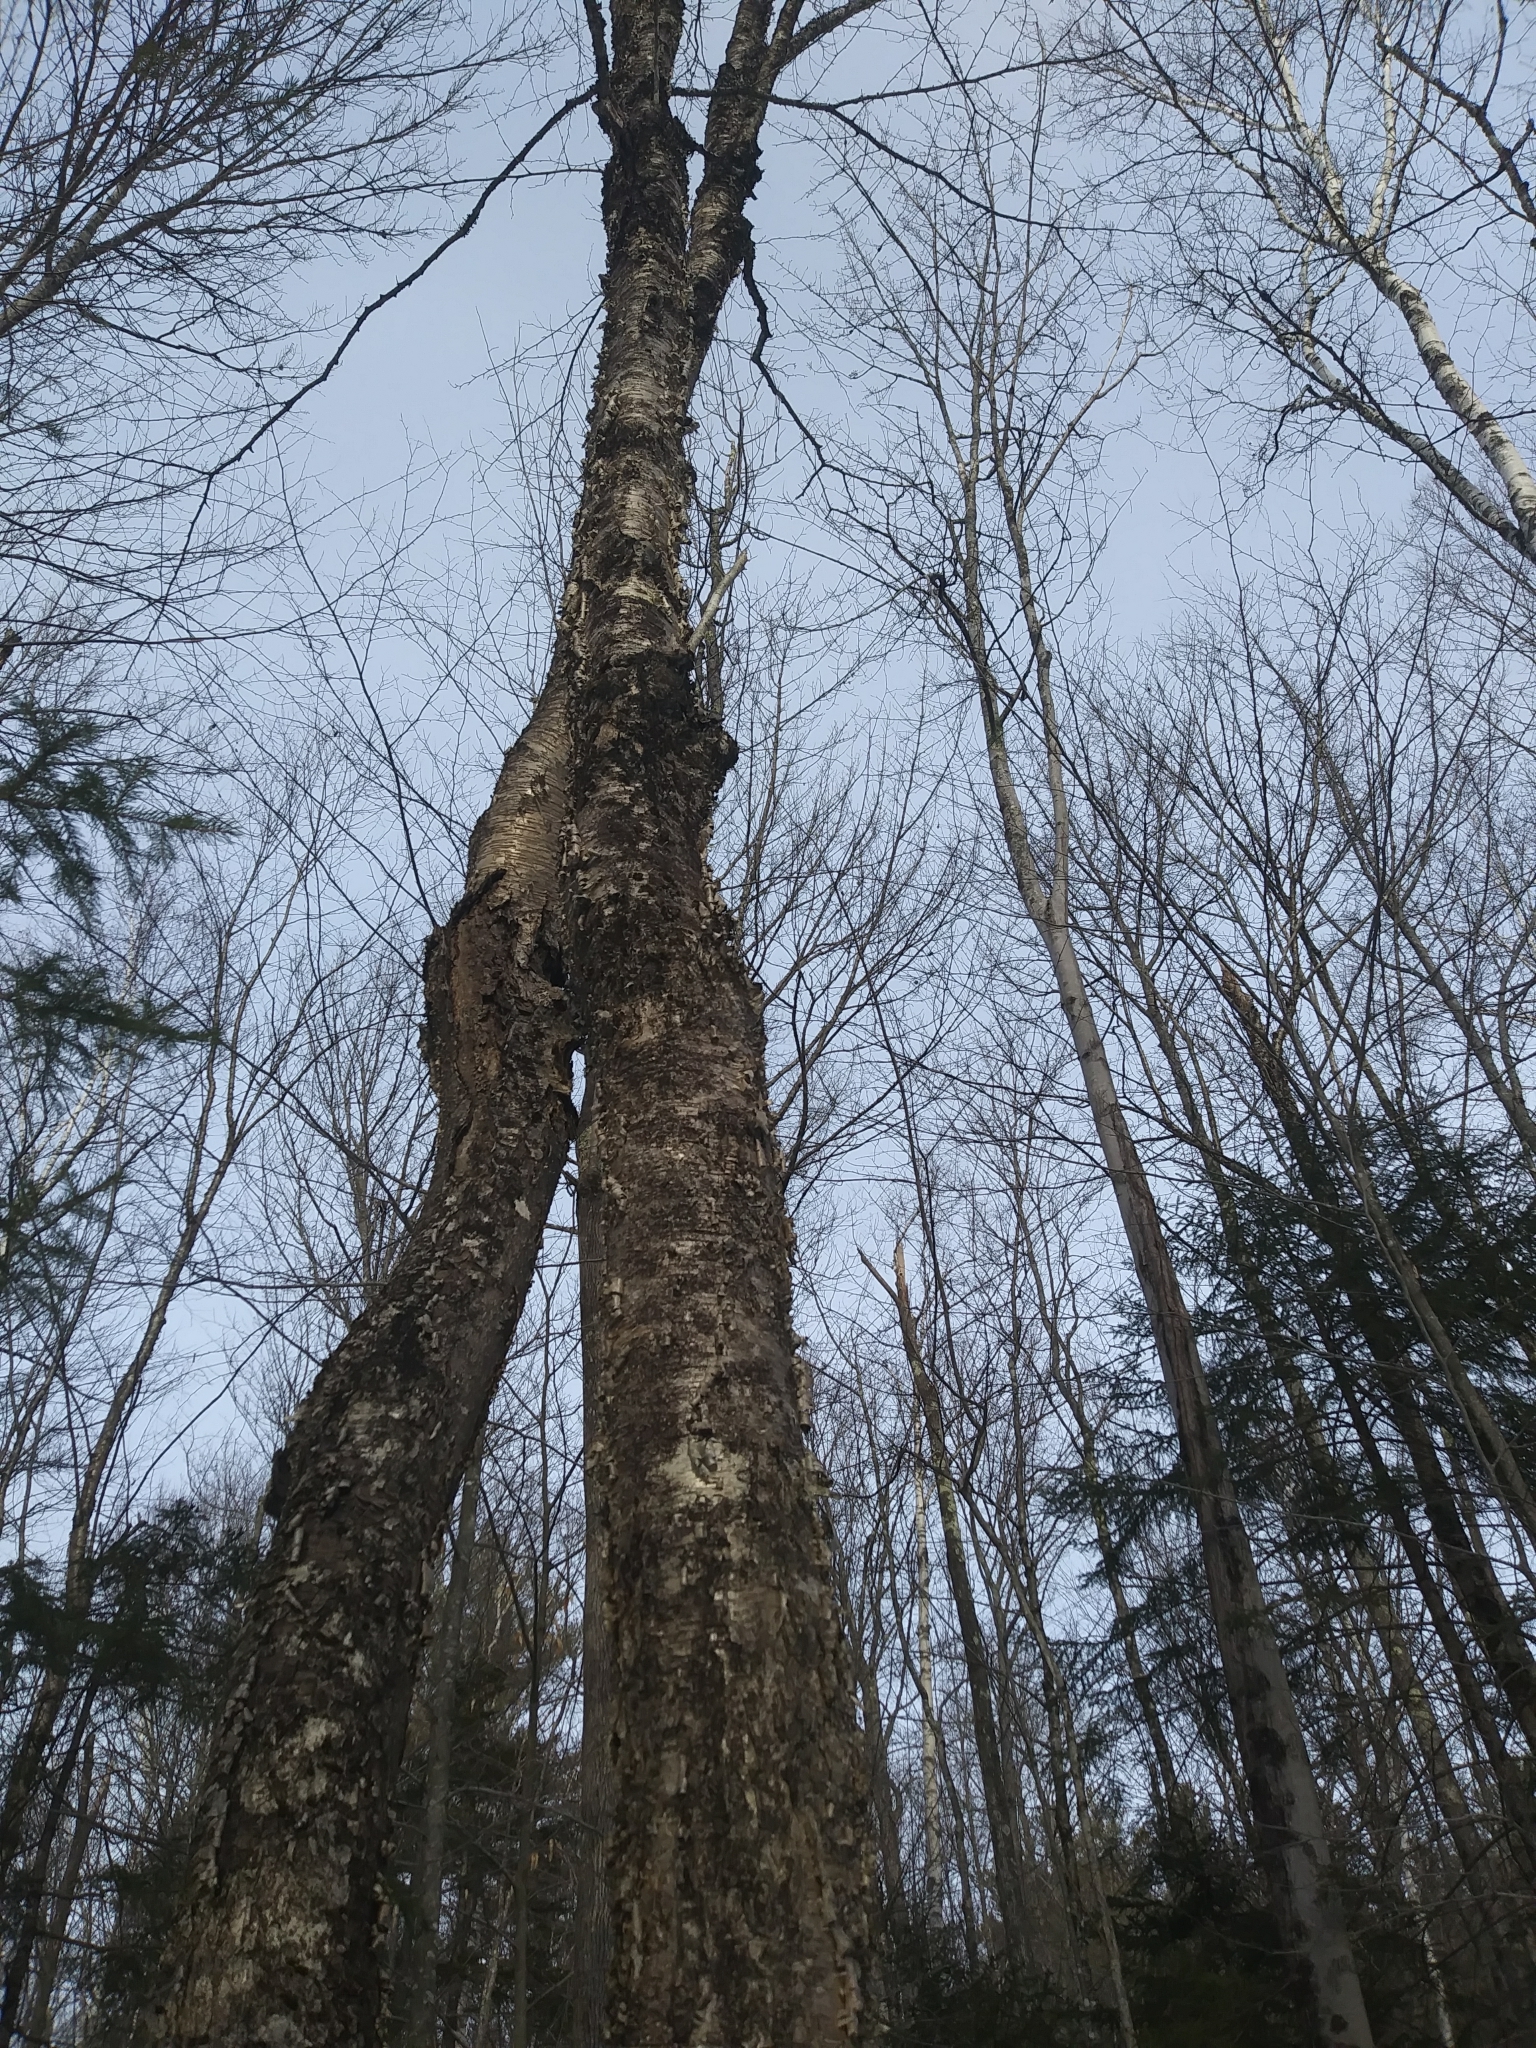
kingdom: Plantae
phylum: Tracheophyta
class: Magnoliopsida
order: Fagales
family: Betulaceae
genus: Betula
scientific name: Betula alleghaniensis
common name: Yellow birch
